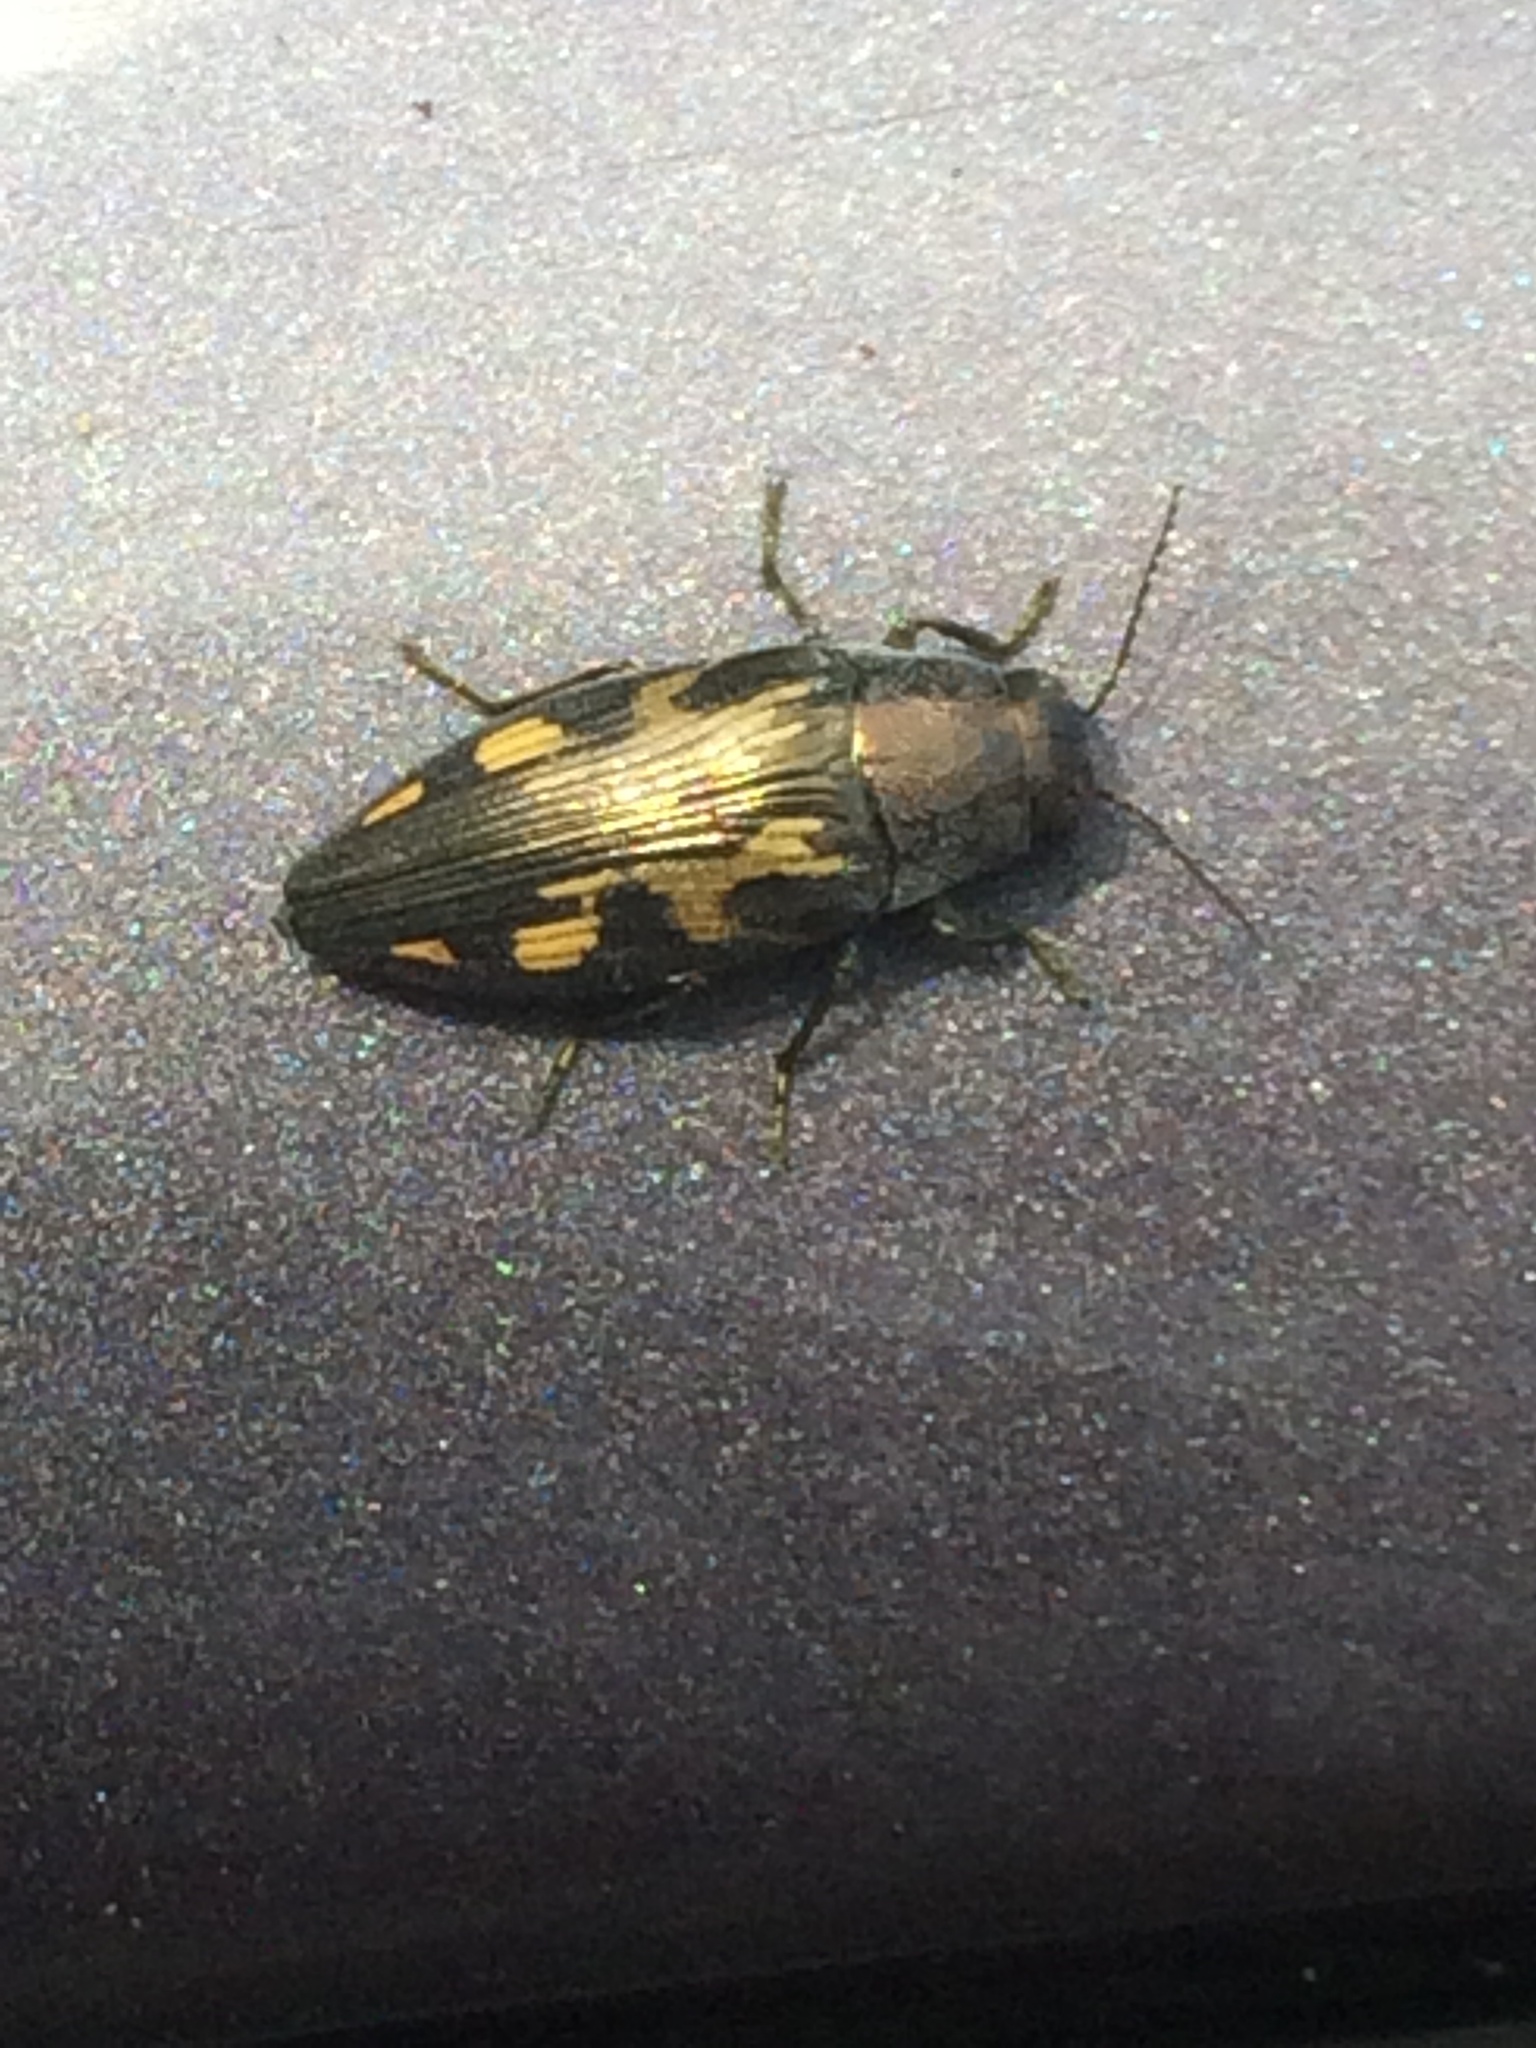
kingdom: Animalia
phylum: Arthropoda
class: Insecta
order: Coleoptera
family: Buprestidae
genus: Buprestis
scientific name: Buprestis maculipennis
